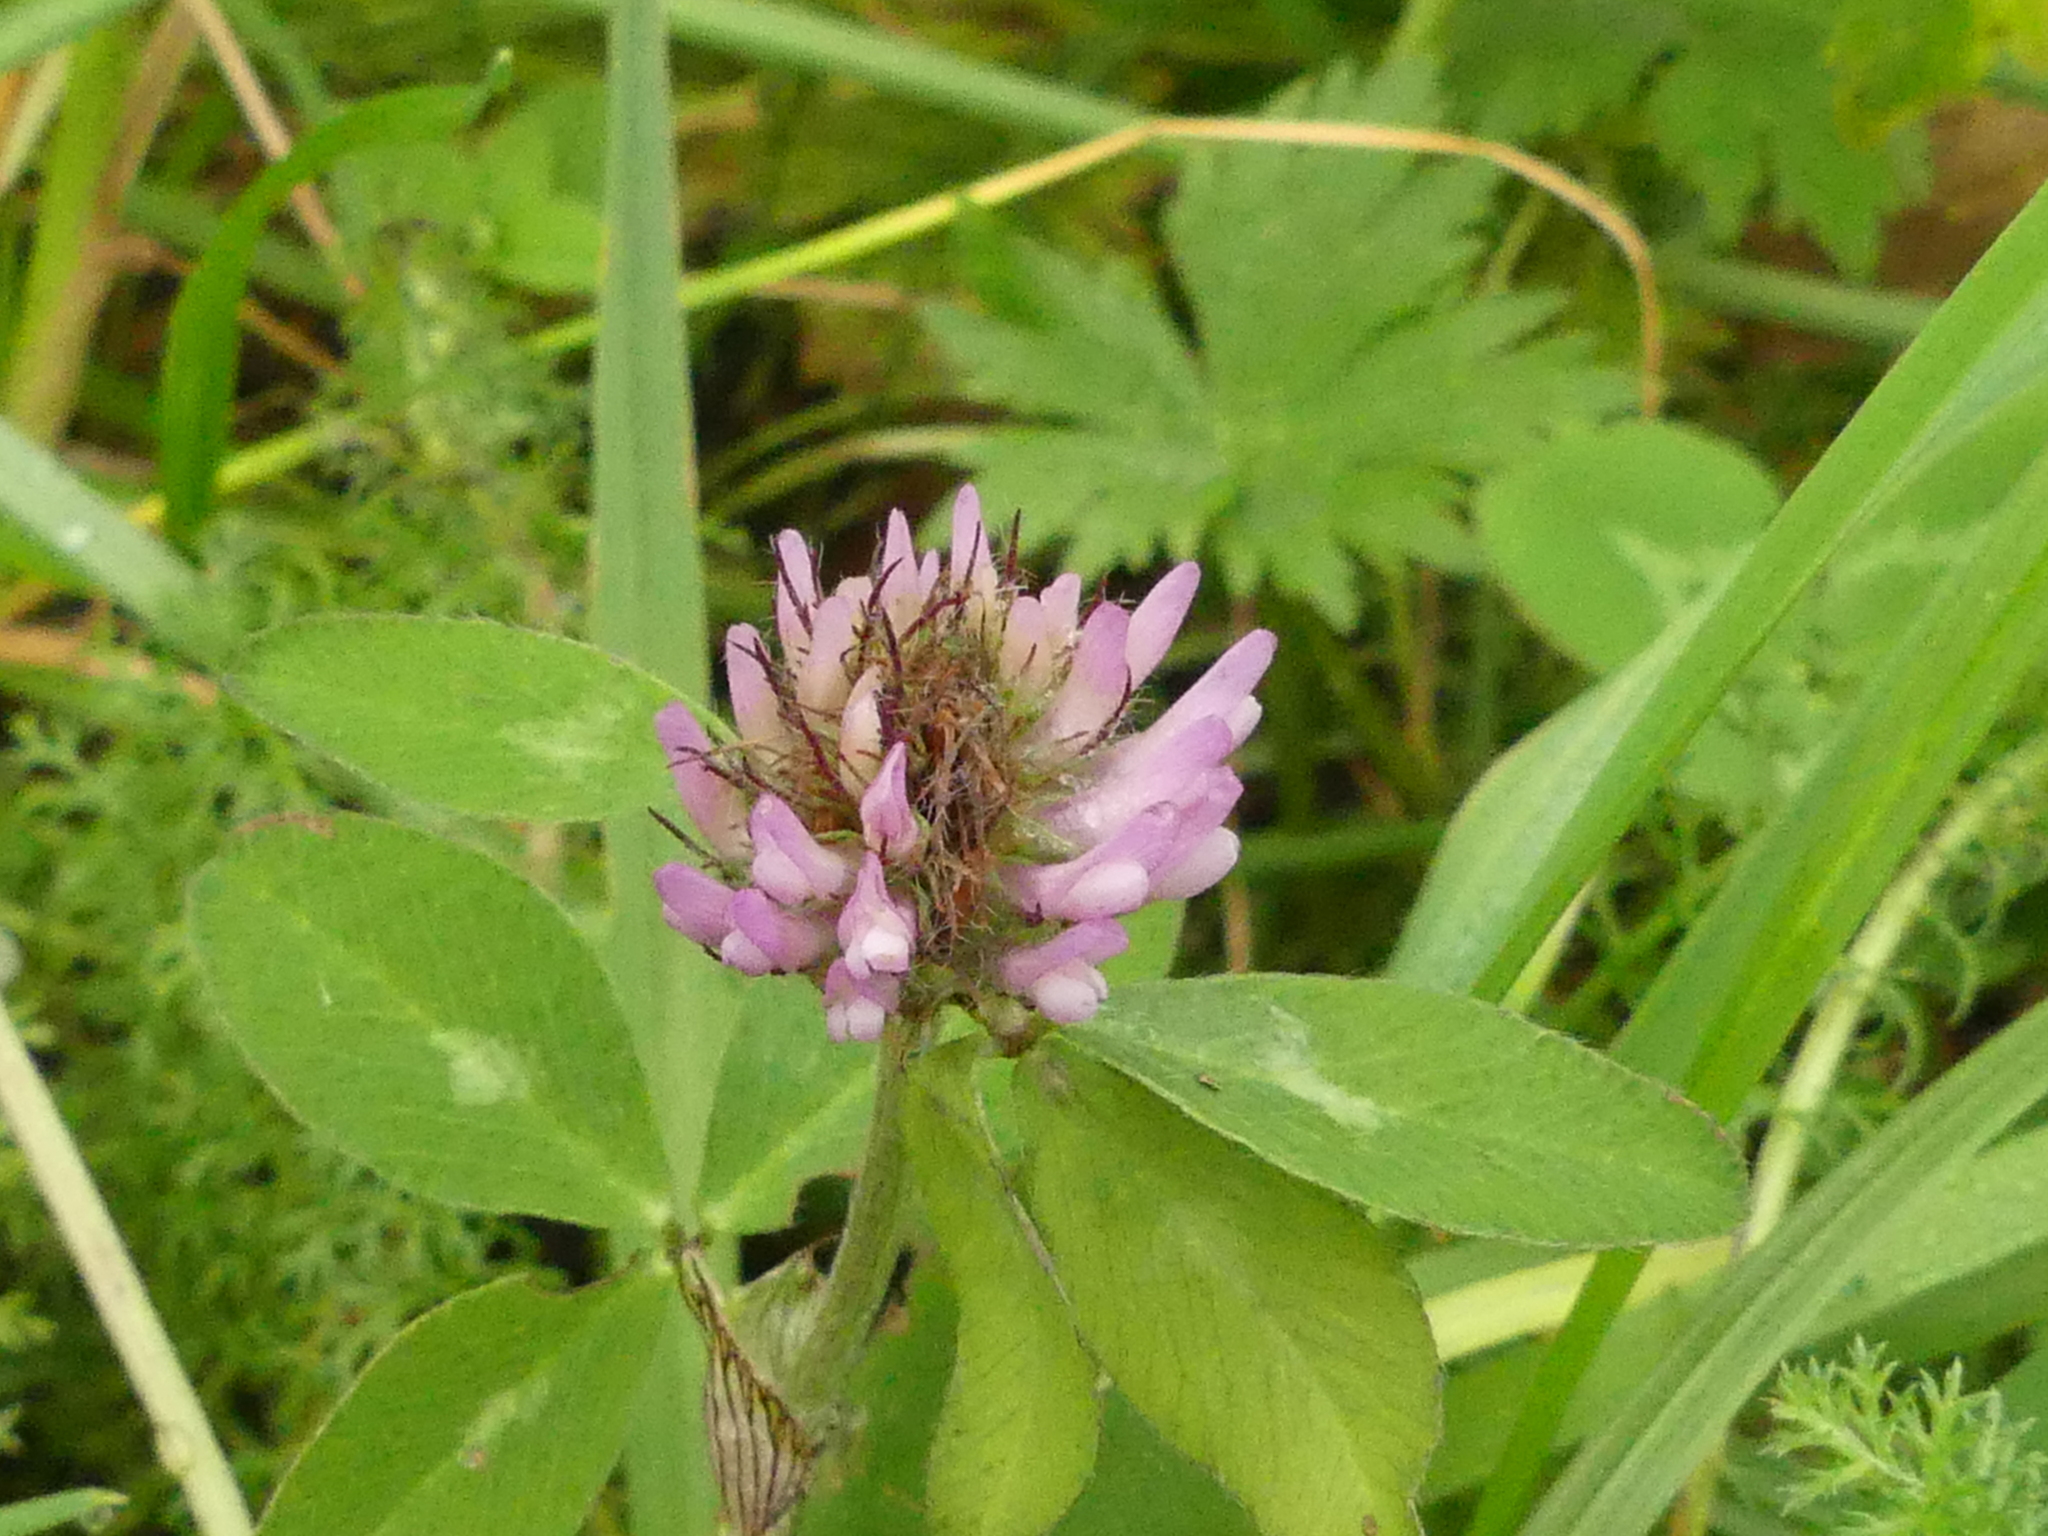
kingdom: Plantae
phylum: Tracheophyta
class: Magnoliopsida
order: Fabales
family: Fabaceae
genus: Trifolium
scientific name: Trifolium pratense
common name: Red clover
